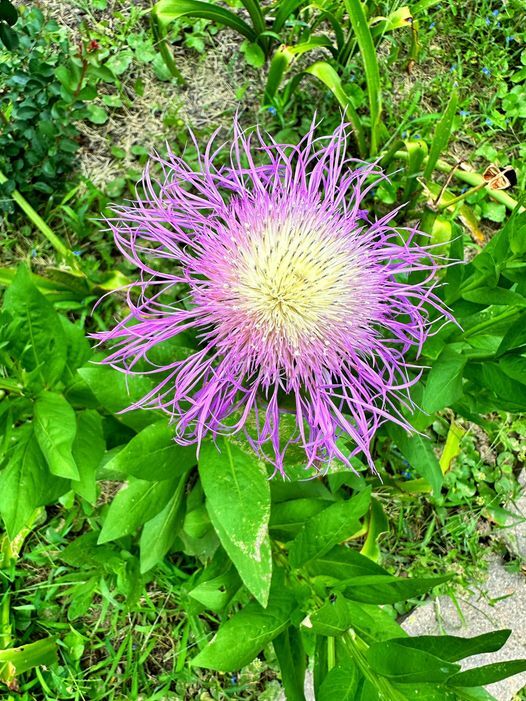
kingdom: Plantae
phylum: Tracheophyta
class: Magnoliopsida
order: Asterales
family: Asteraceae
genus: Plectocephalus
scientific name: Plectocephalus americanus
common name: American basket-flower
